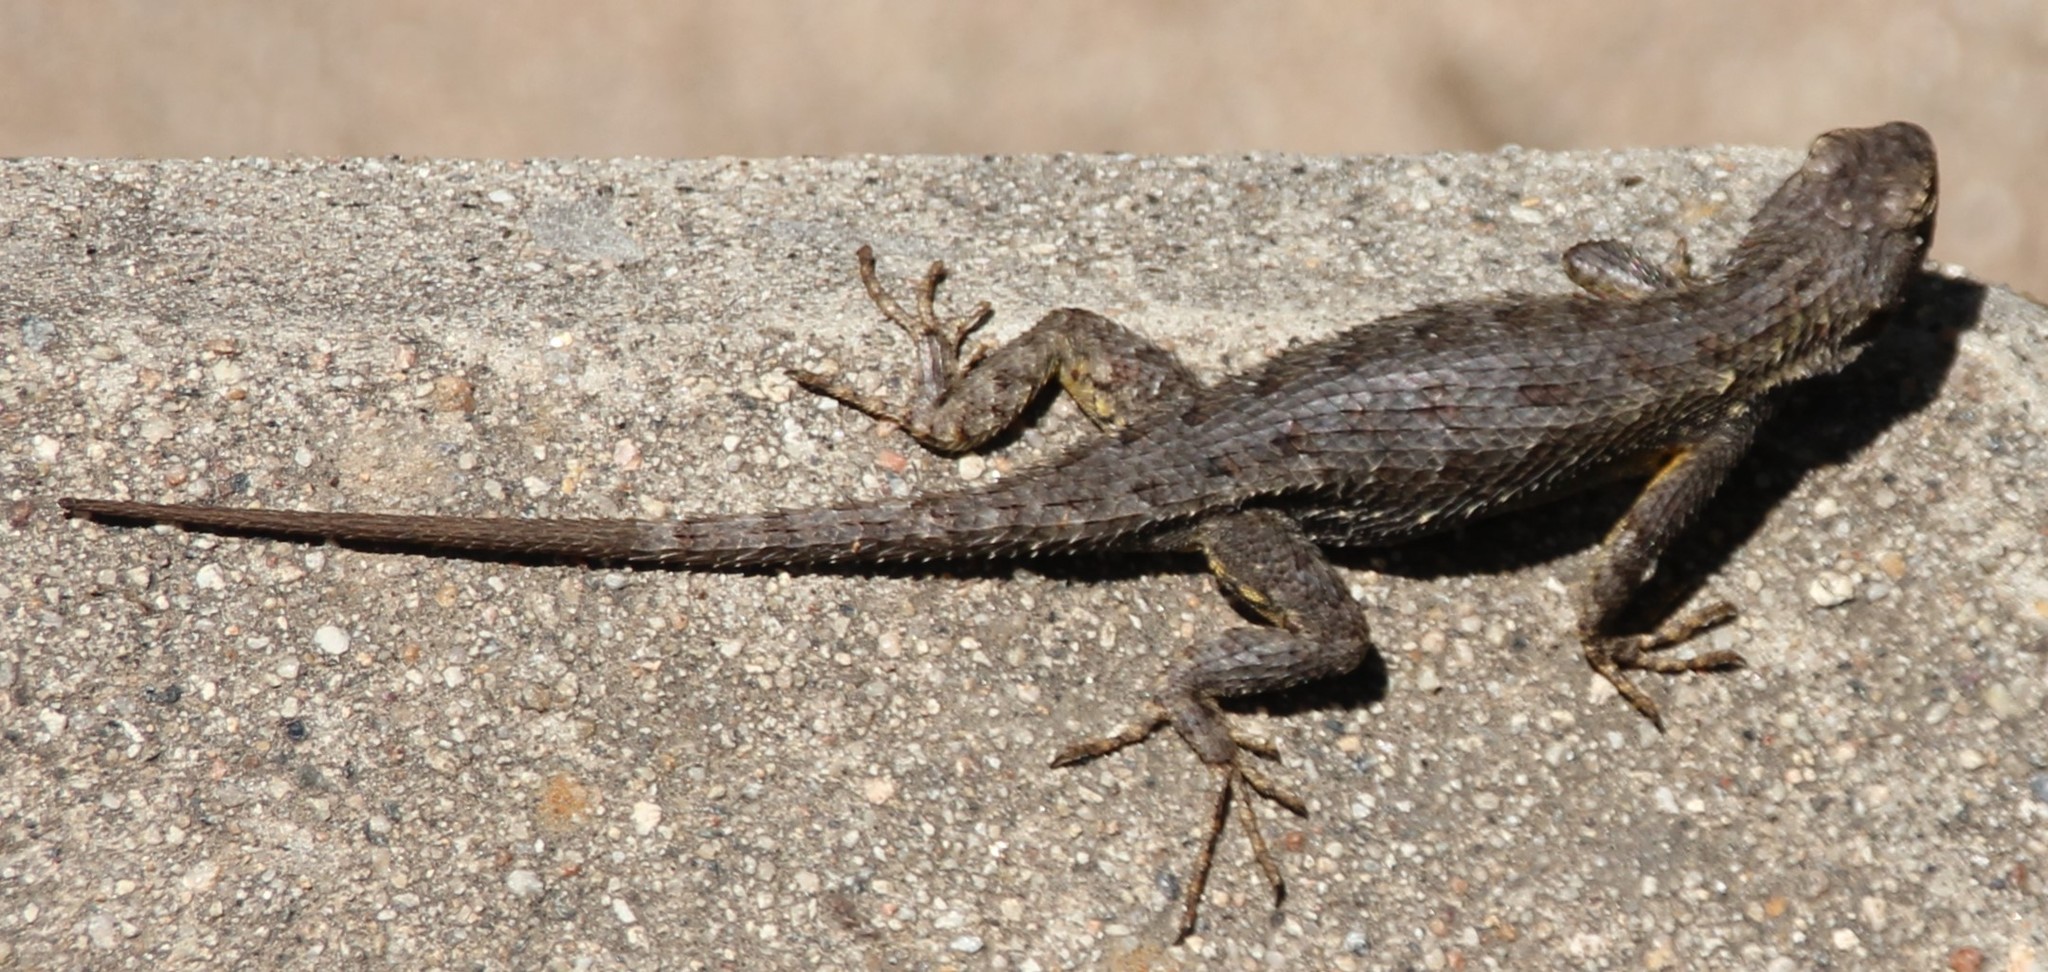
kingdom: Animalia
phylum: Chordata
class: Squamata
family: Phrynosomatidae
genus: Sceloporus
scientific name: Sceloporus occidentalis
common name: Western fence lizard
